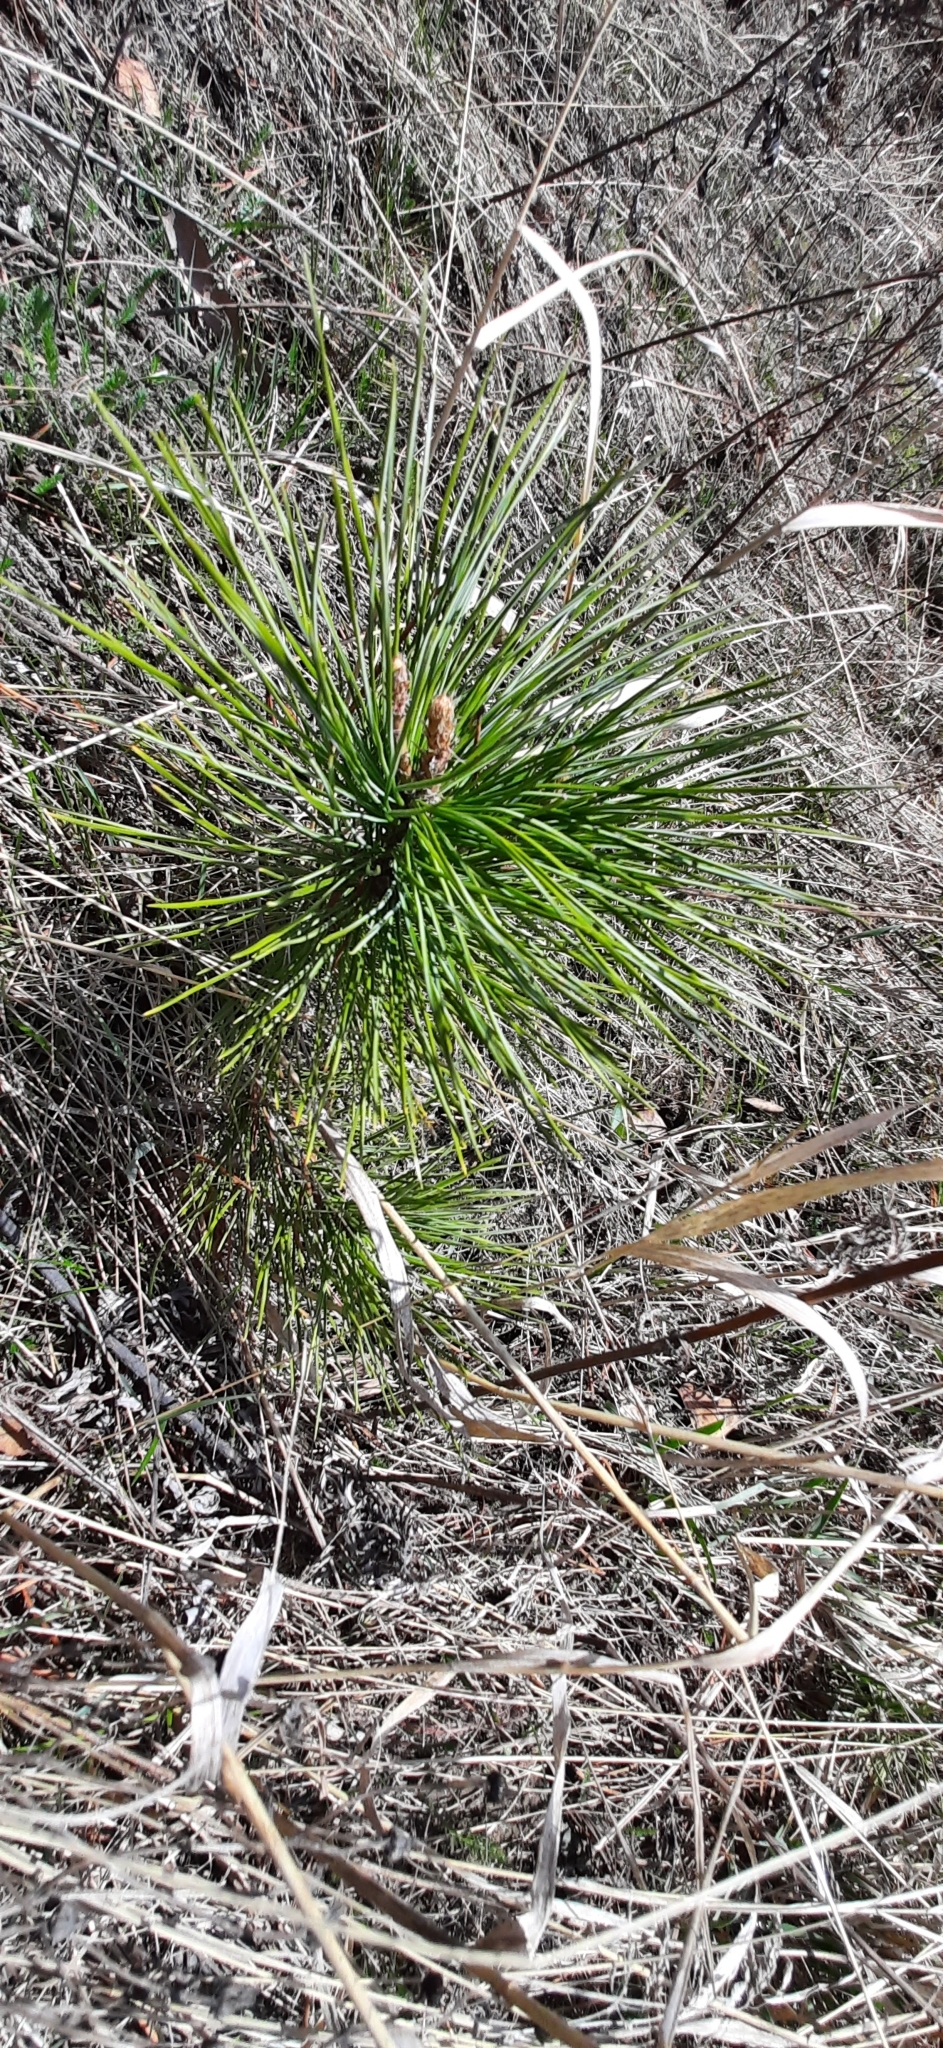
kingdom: Plantae
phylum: Tracheophyta
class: Pinopsida
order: Pinales
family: Pinaceae
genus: Pinus
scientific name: Pinus sibirica
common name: Siberian pine
